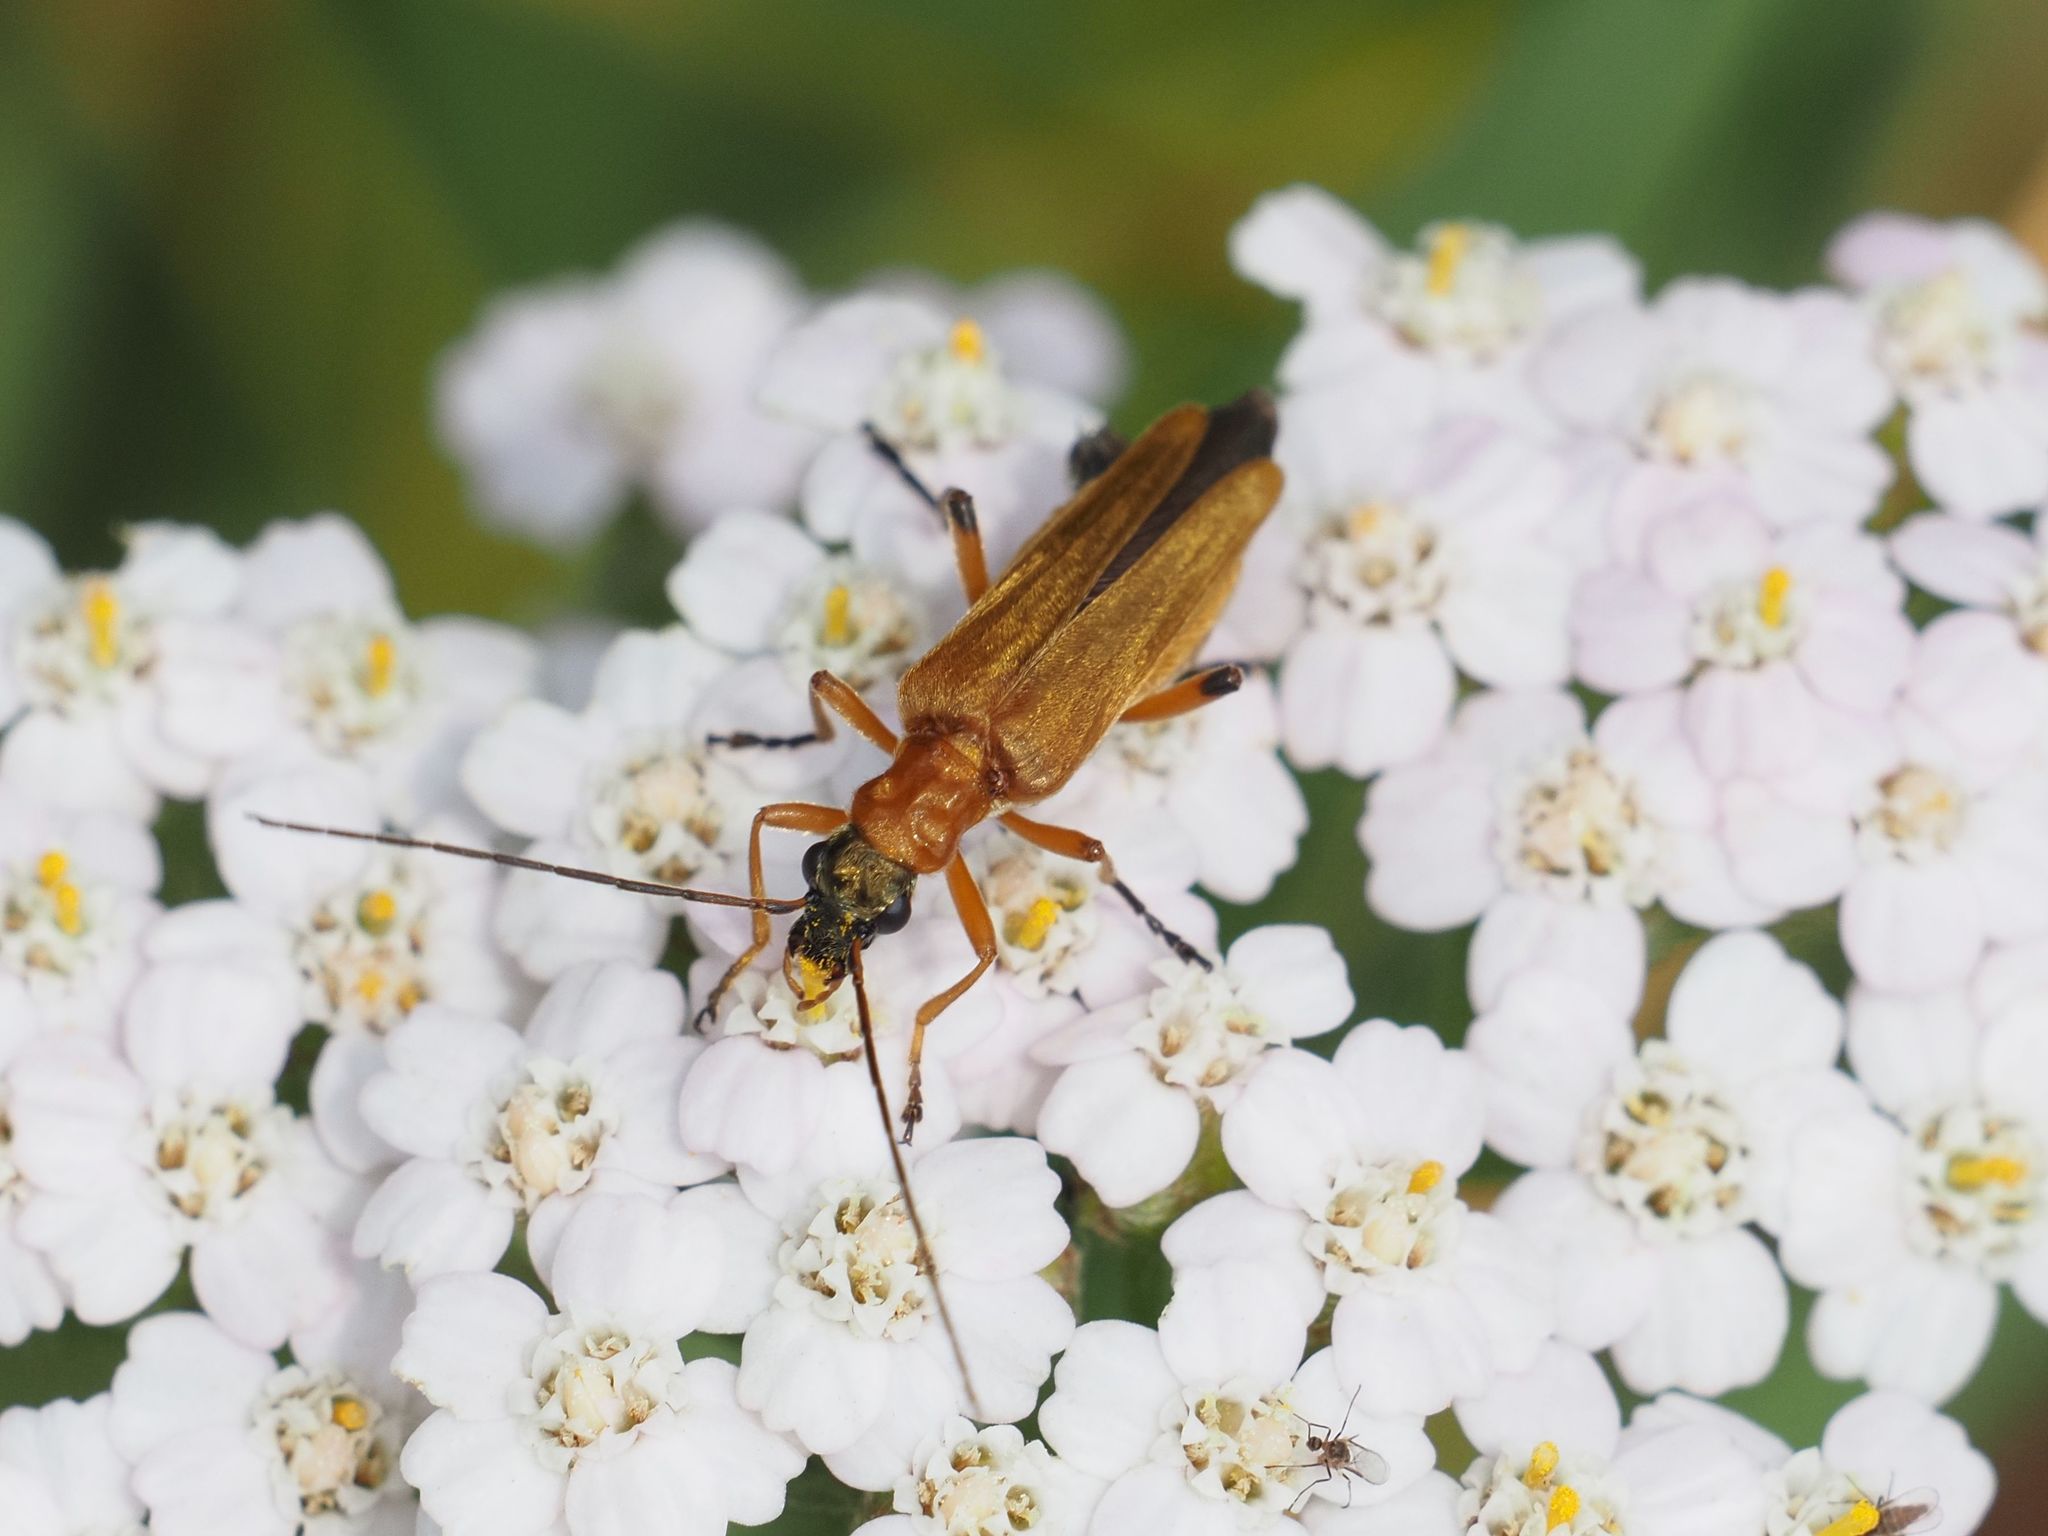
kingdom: Animalia
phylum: Arthropoda
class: Insecta
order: Coleoptera
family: Oedemeridae
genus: Oedemera
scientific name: Oedemera podagrariae
